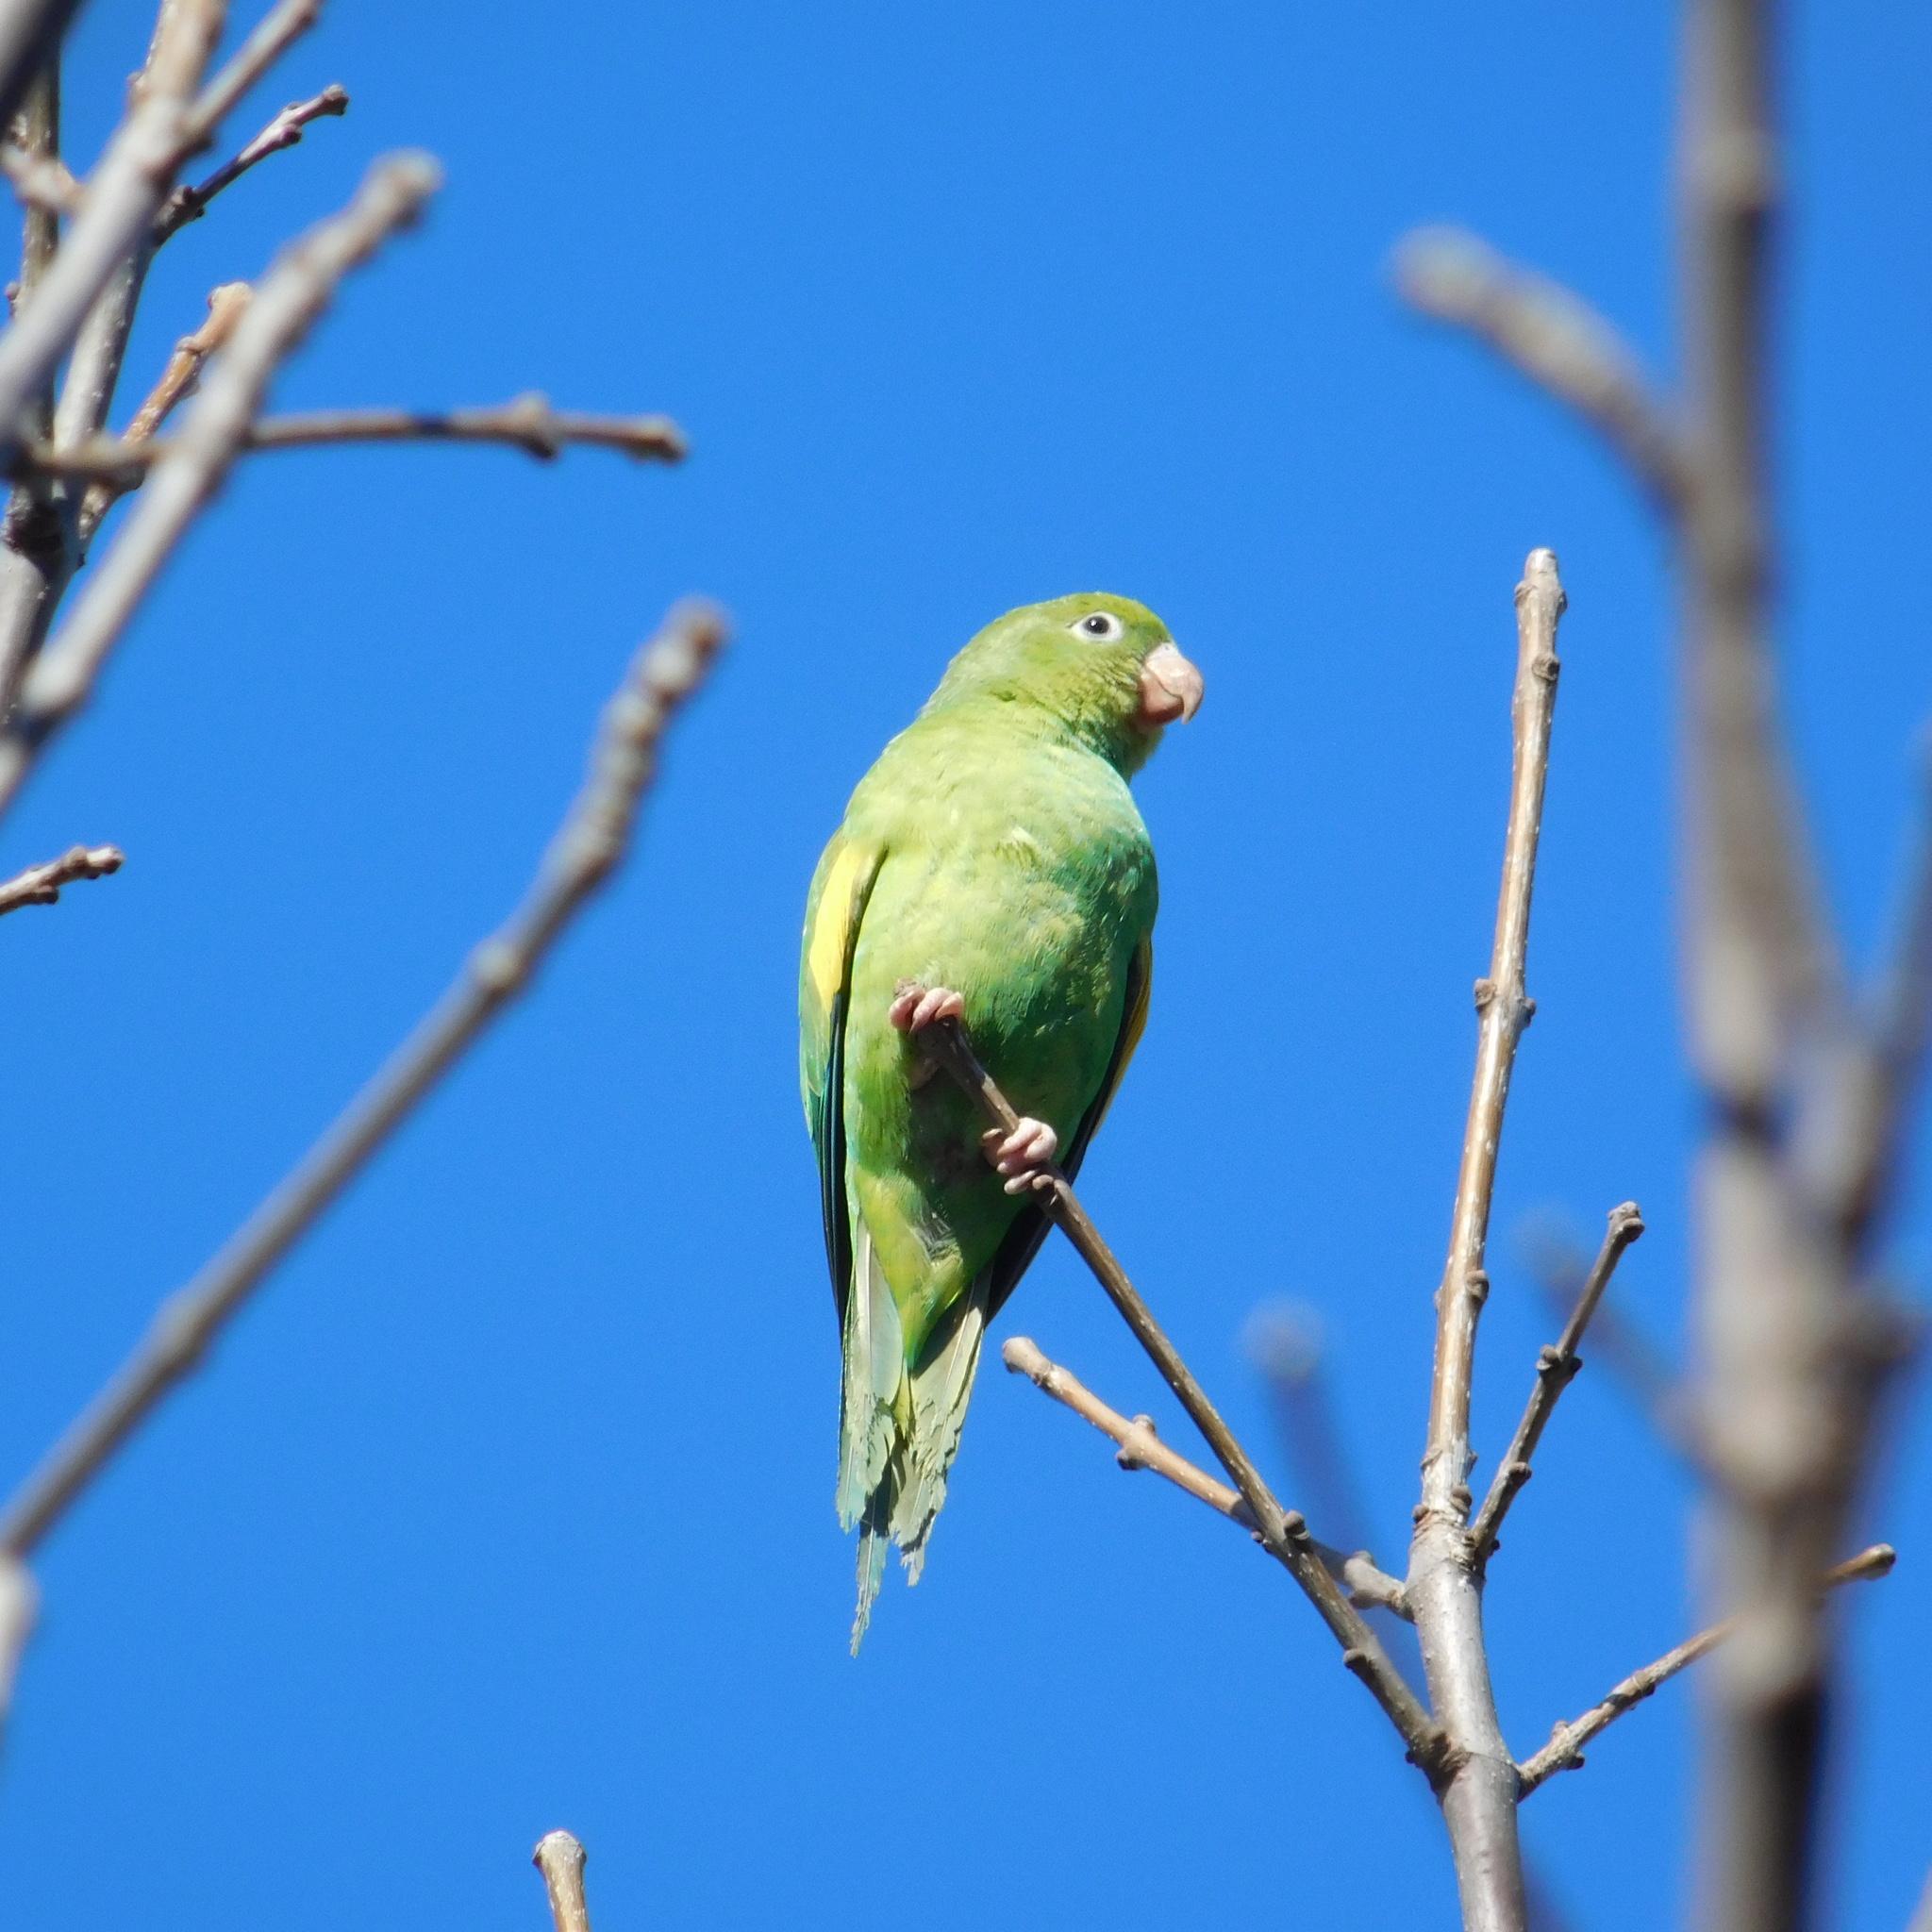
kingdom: Animalia
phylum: Chordata
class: Aves
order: Psittaciformes
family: Psittacidae
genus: Brotogeris
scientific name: Brotogeris chiriri
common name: Yellow-chevroned parakeet
